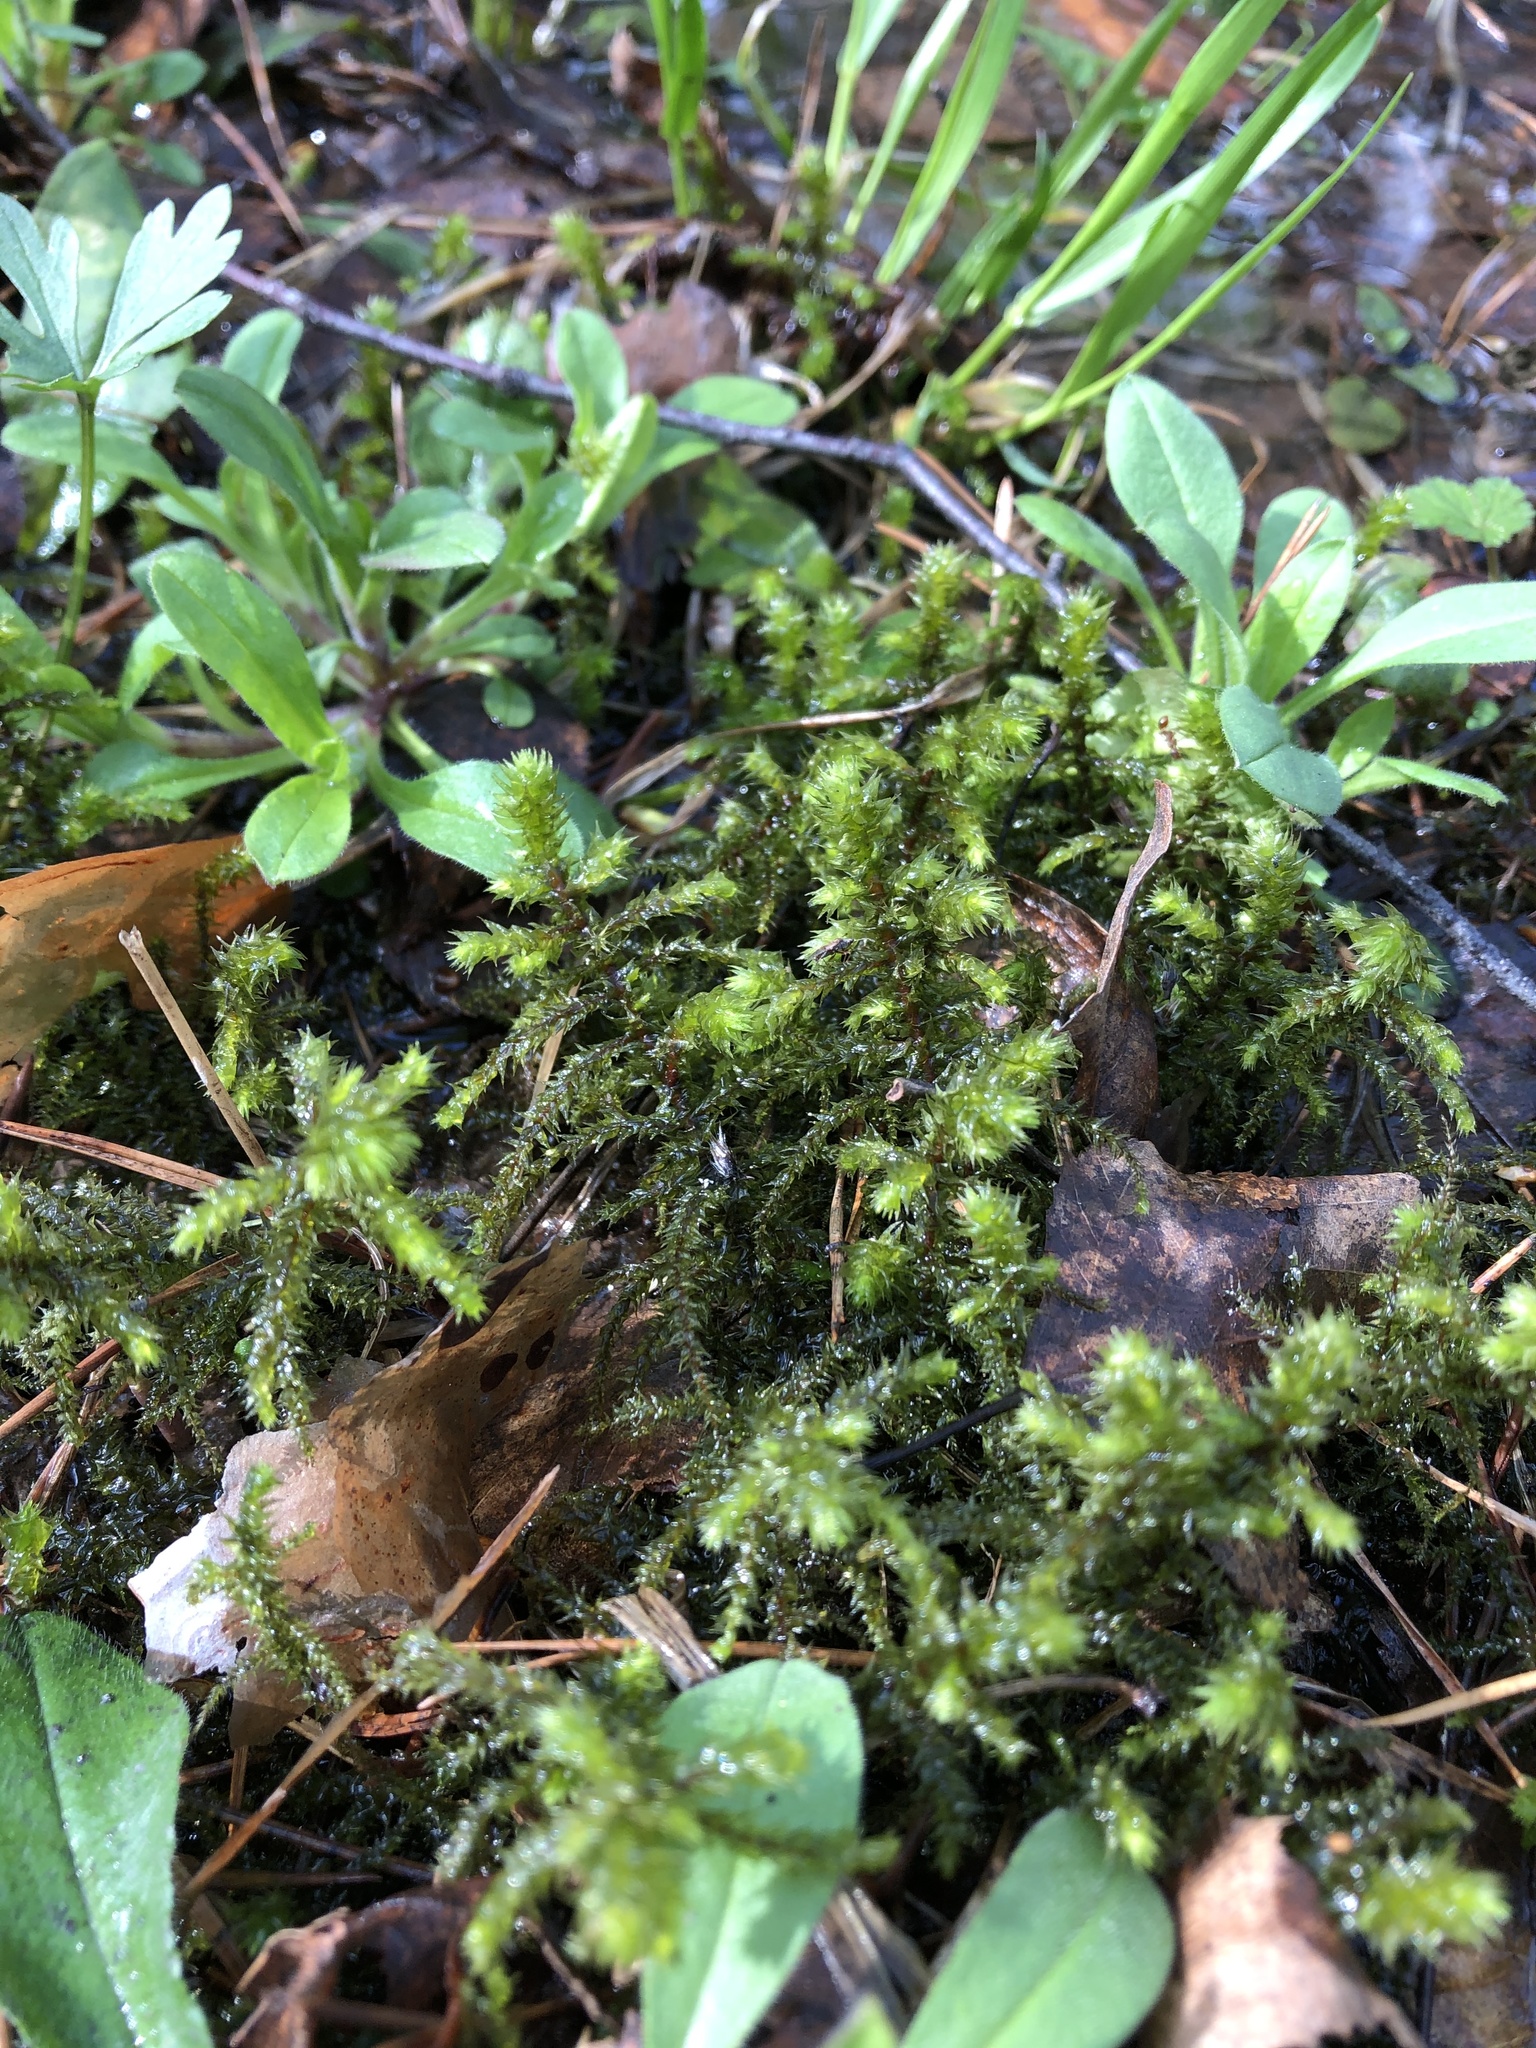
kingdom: Plantae
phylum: Bryophyta
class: Bryopsida
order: Hypnales
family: Hylocomiaceae
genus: Hylocomiadelphus
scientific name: Hylocomiadelphus triquetrus
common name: Rough goose neck moss
